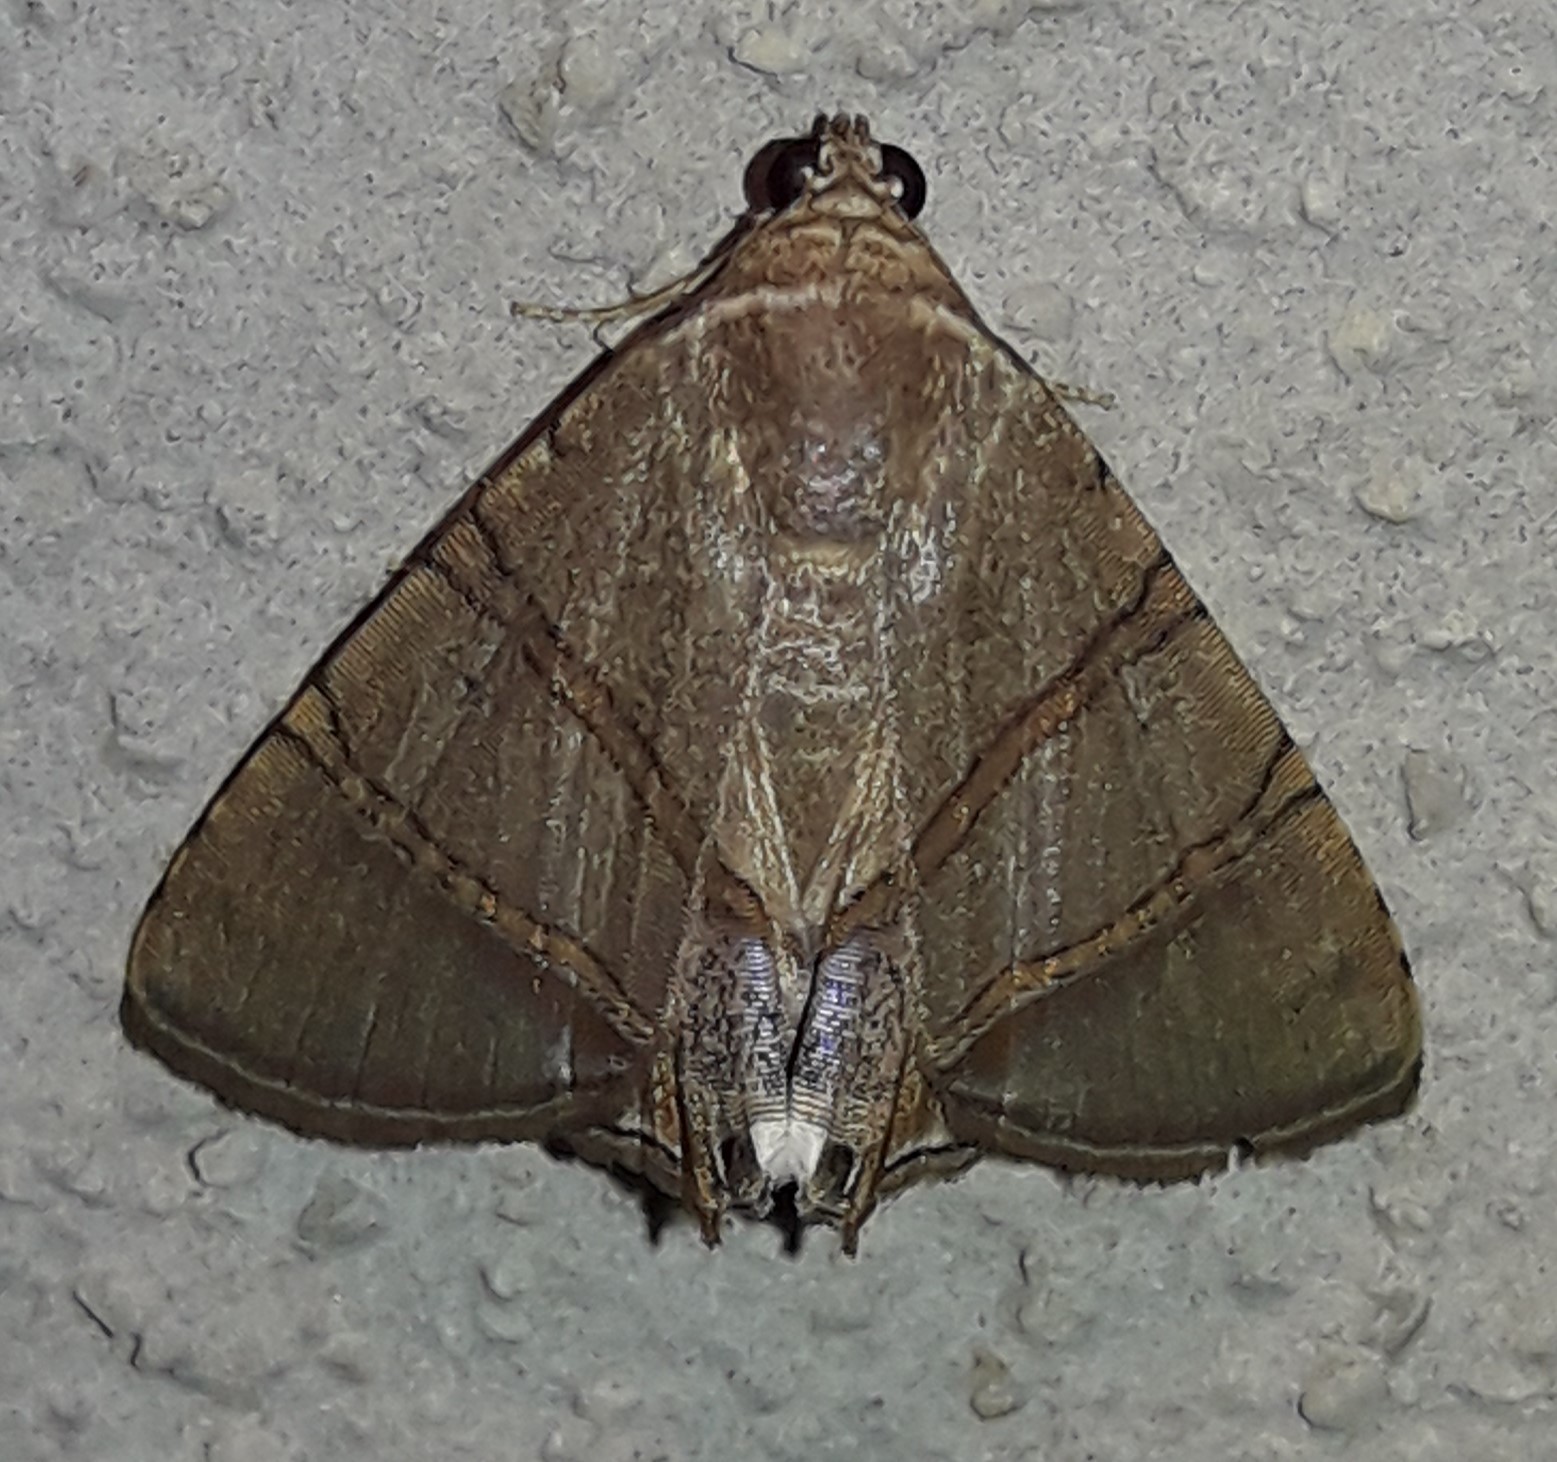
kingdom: Animalia
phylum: Arthropoda
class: Insecta
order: Lepidoptera
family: Erebidae
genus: Eulepidotis
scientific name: Eulepidotis mabis
